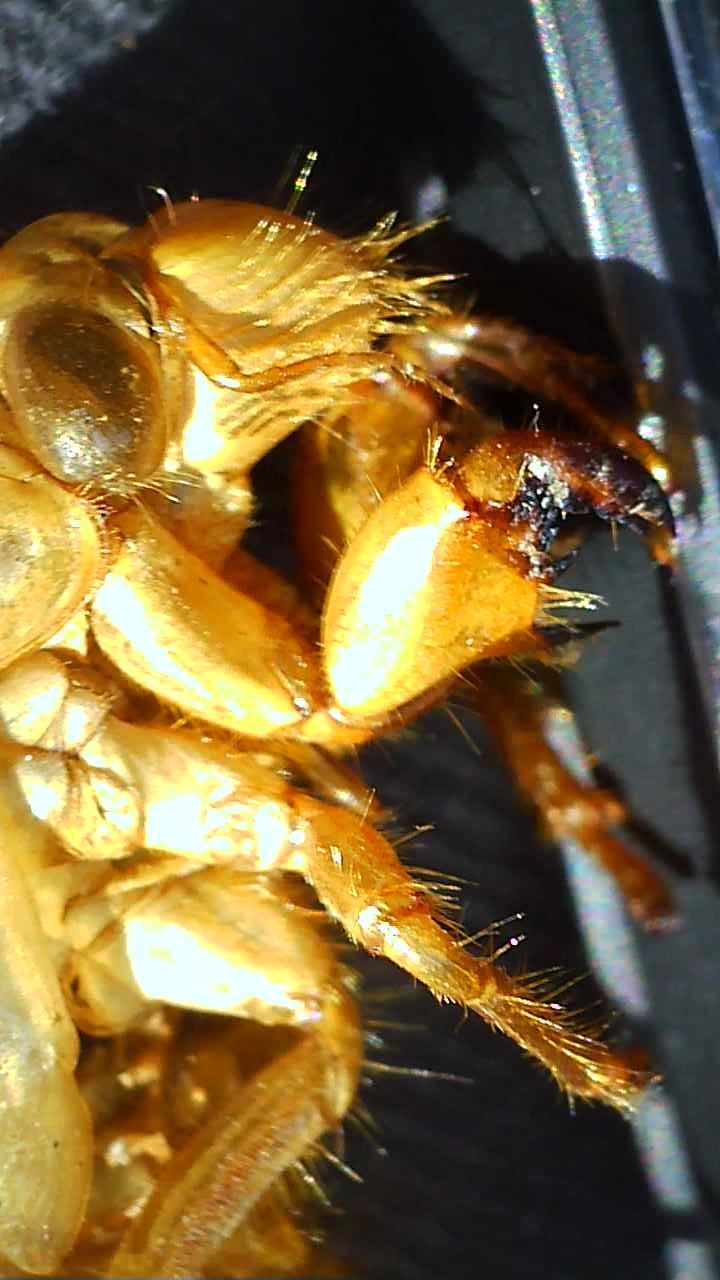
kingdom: Animalia
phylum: Arthropoda
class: Insecta
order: Hemiptera
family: Cicadidae
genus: Magicicada
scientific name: Magicicada
